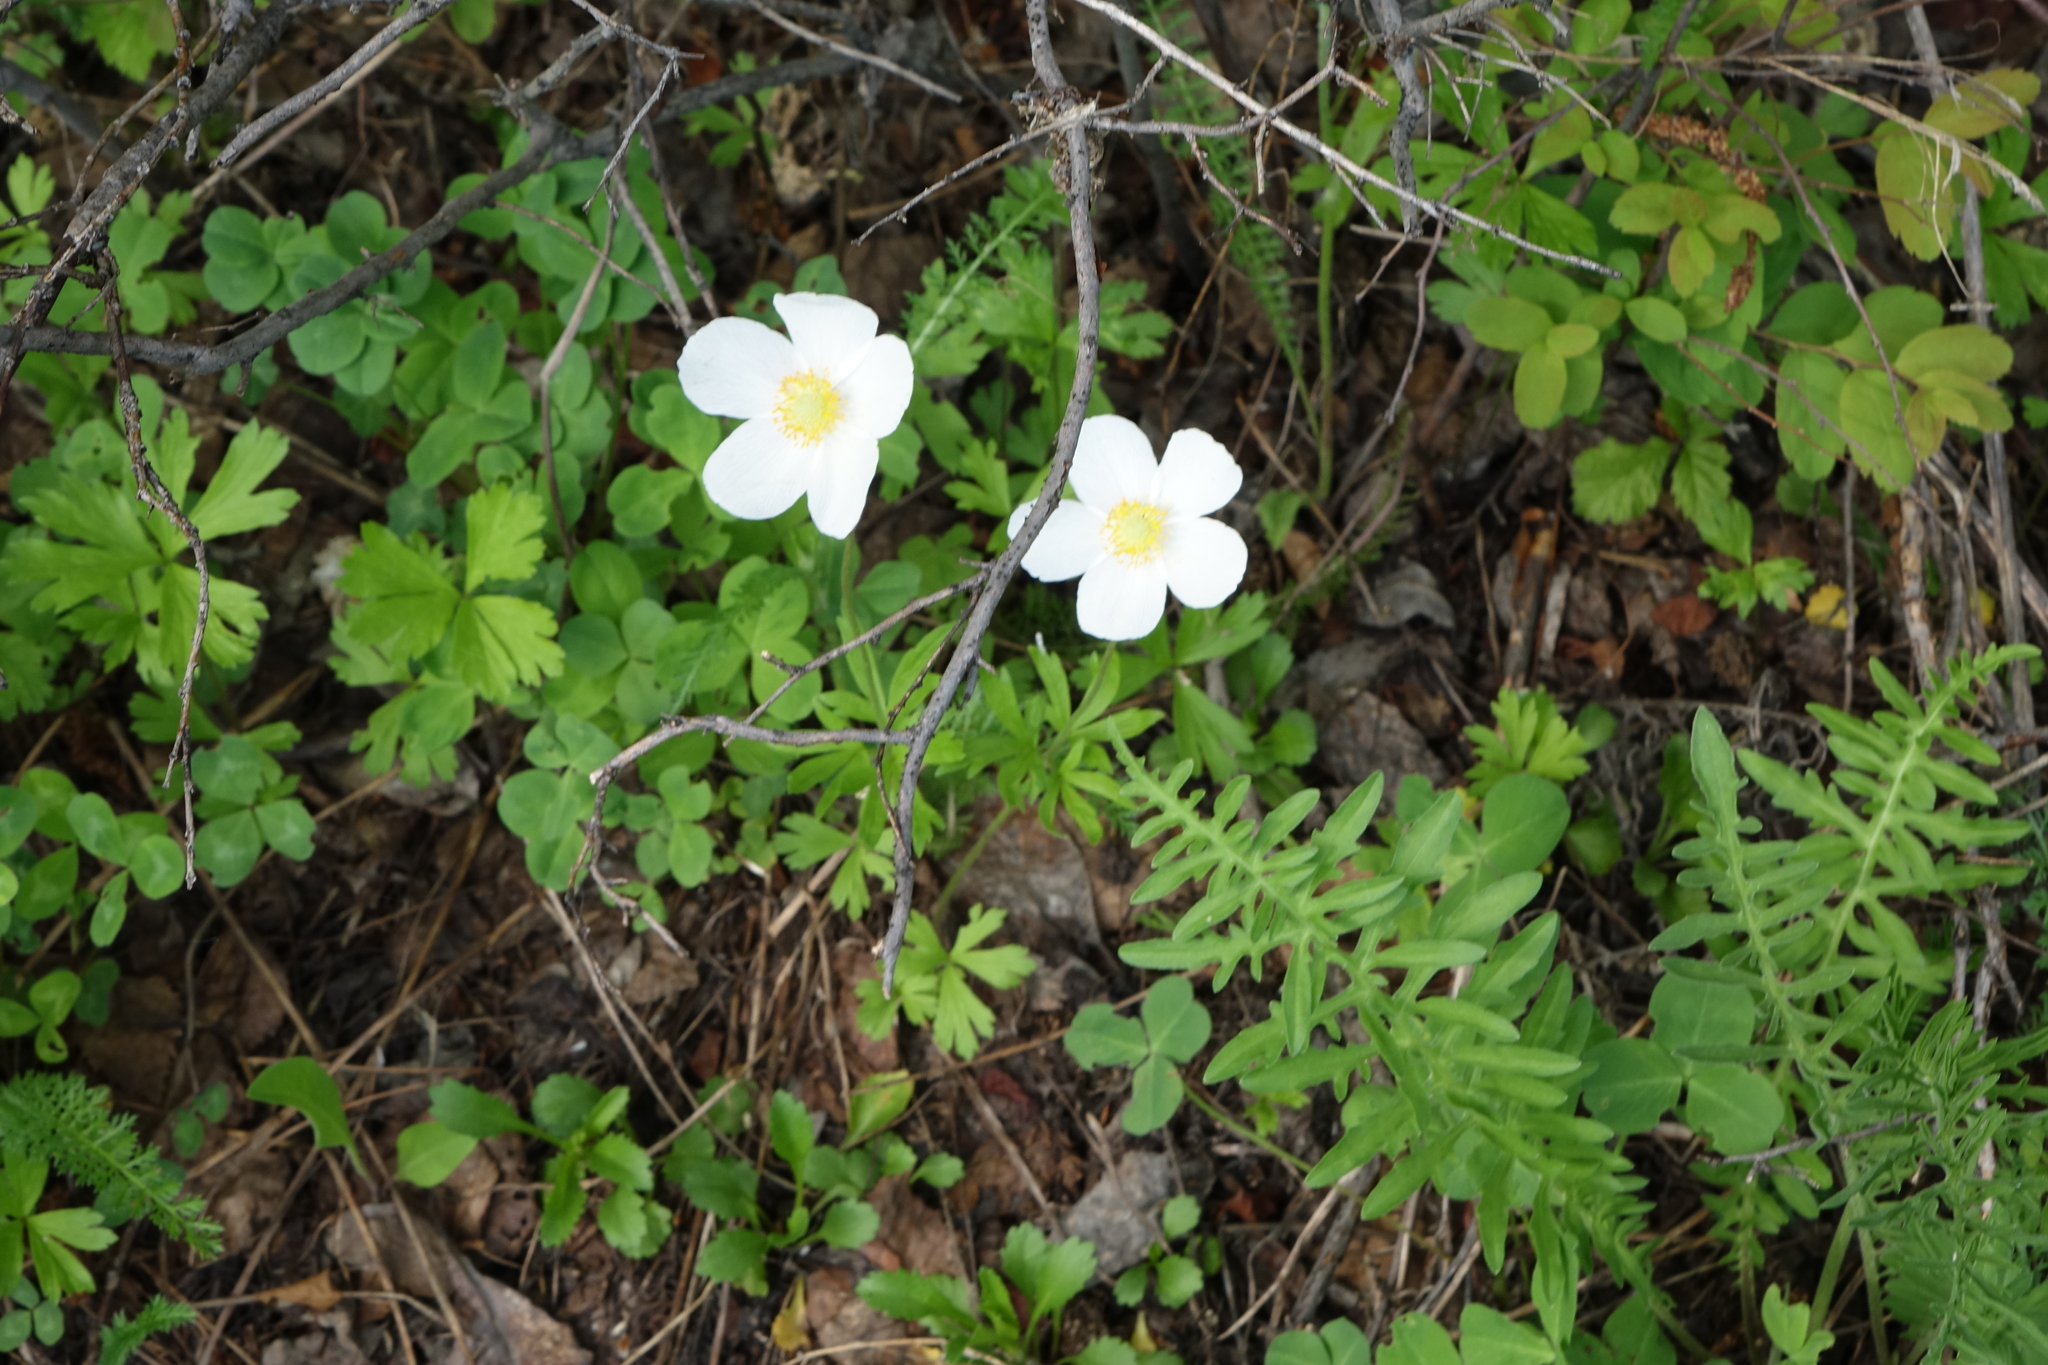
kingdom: Plantae
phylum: Tracheophyta
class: Magnoliopsida
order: Ranunculales
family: Ranunculaceae
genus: Anemone
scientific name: Anemone sylvestris
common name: Snowdrop anemone
